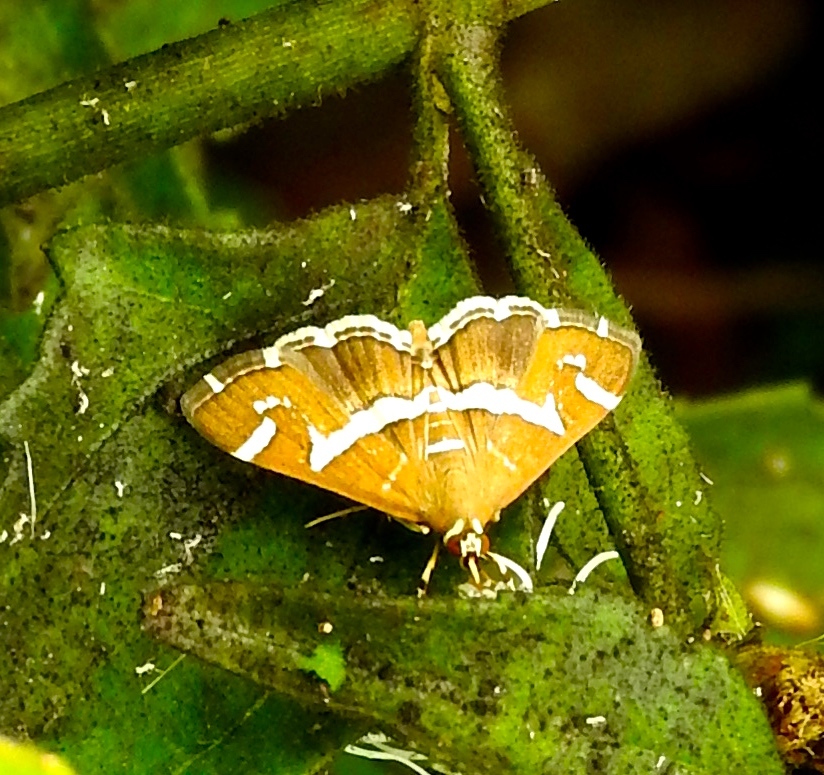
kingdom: Animalia
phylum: Arthropoda
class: Insecta
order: Lepidoptera
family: Crambidae
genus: Spoladea
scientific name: Spoladea recurvalis
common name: Beet webworm moth
